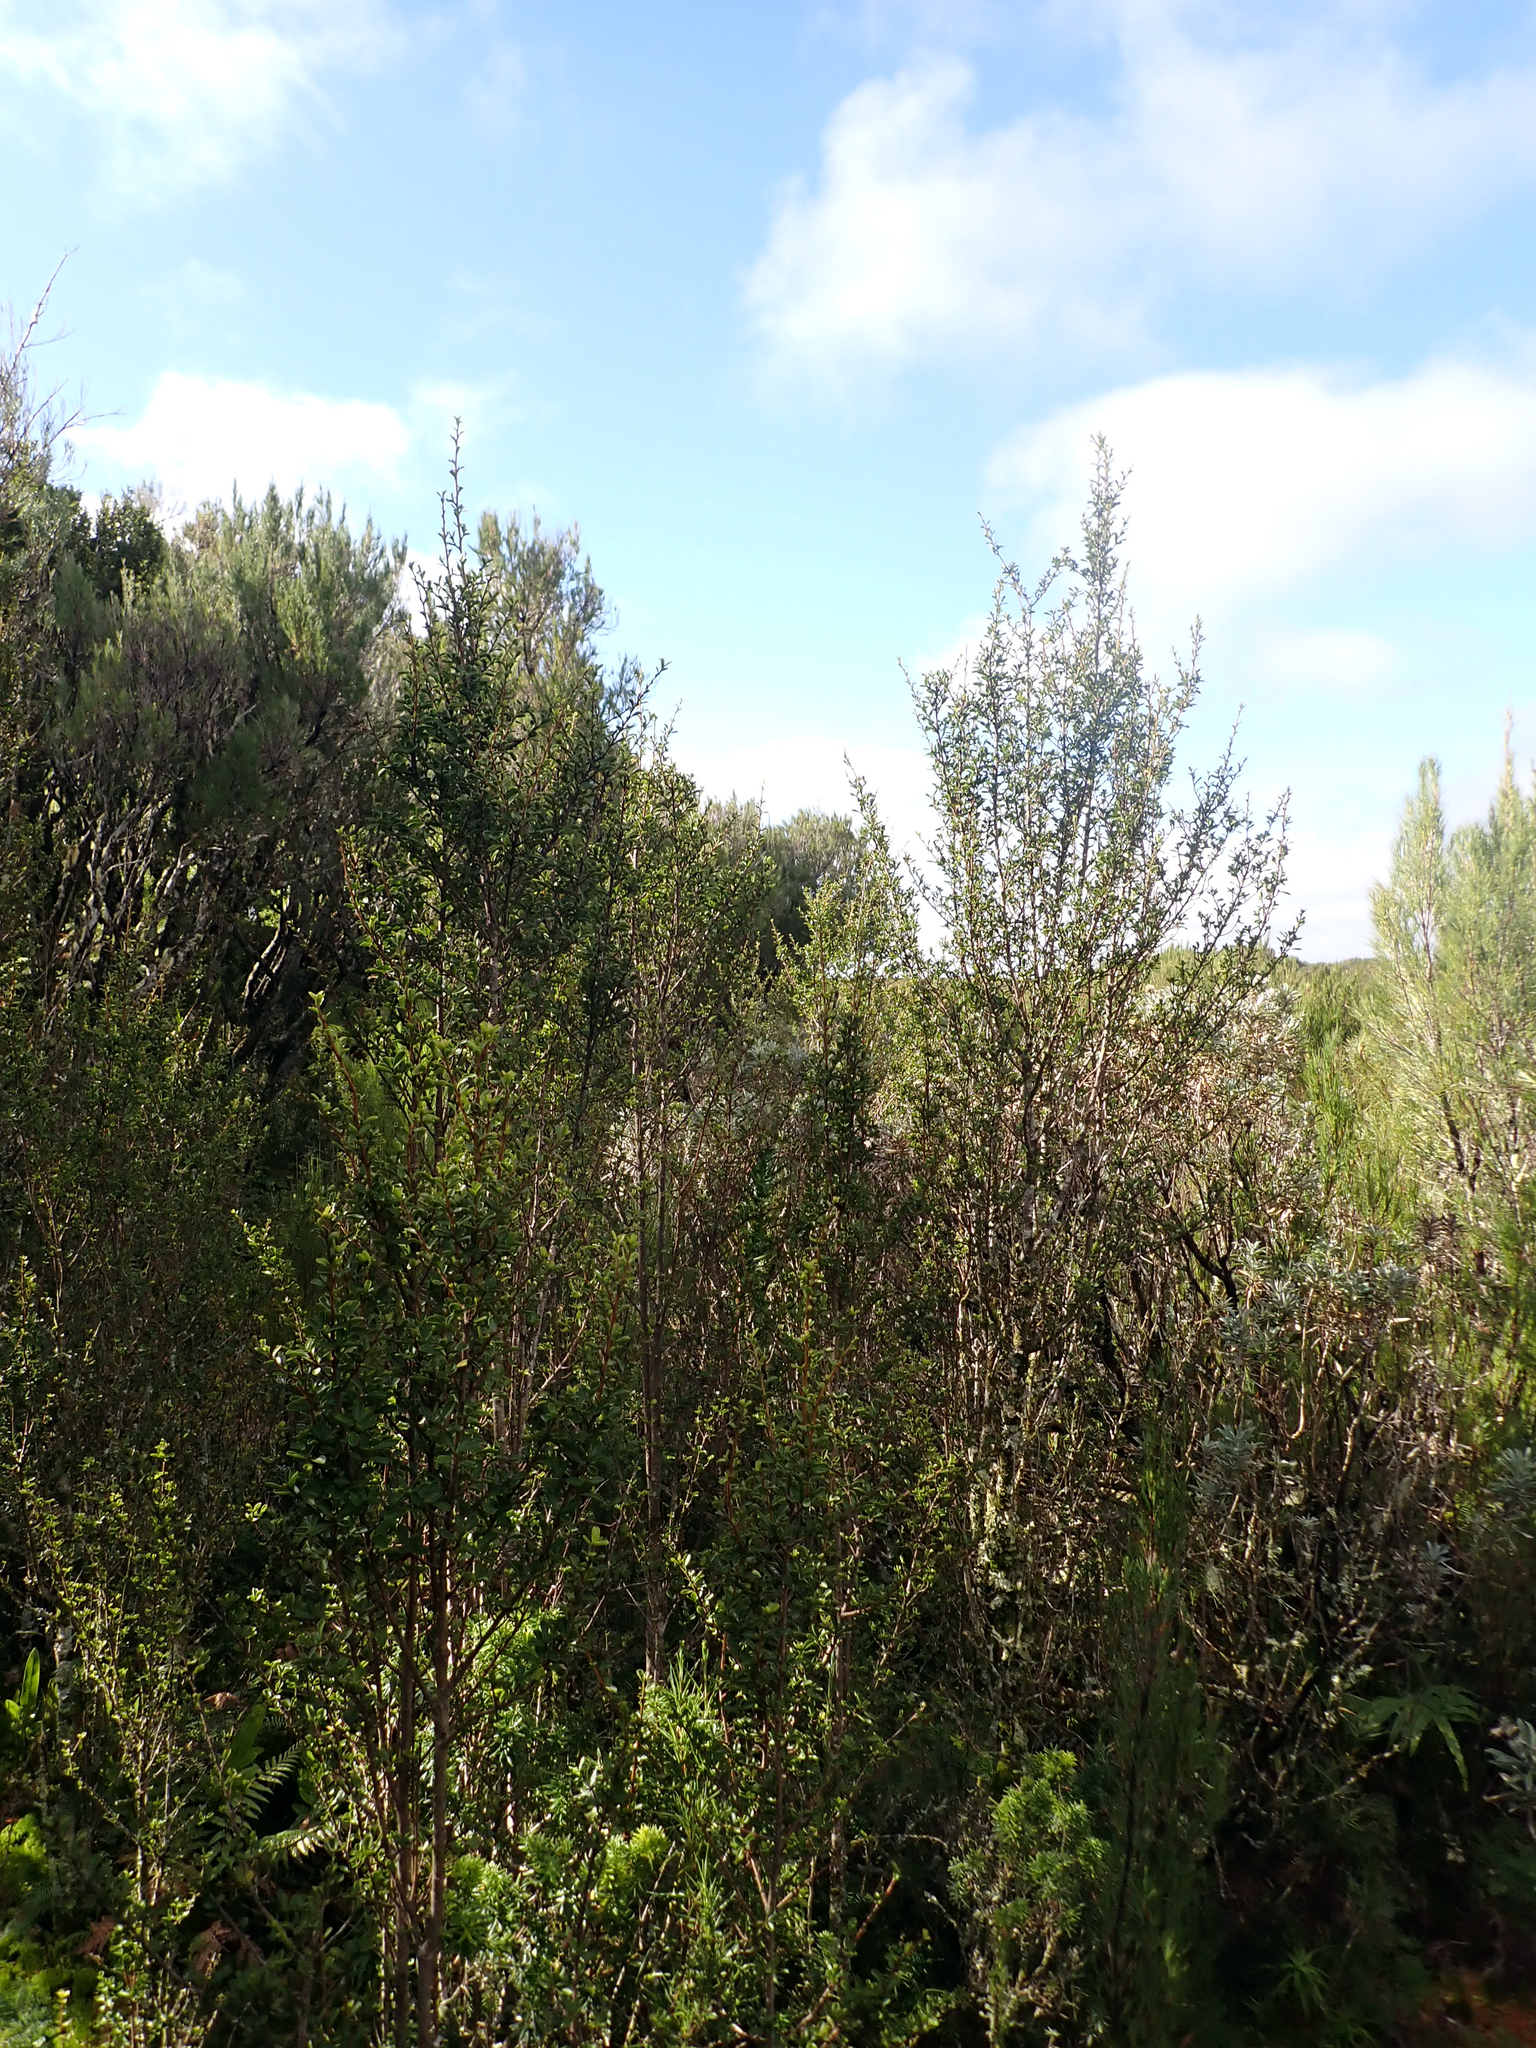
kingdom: Plantae
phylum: Tracheophyta
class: Magnoliopsida
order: Ericales
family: Primulaceae
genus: Myrsine
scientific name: Myrsine coxii
